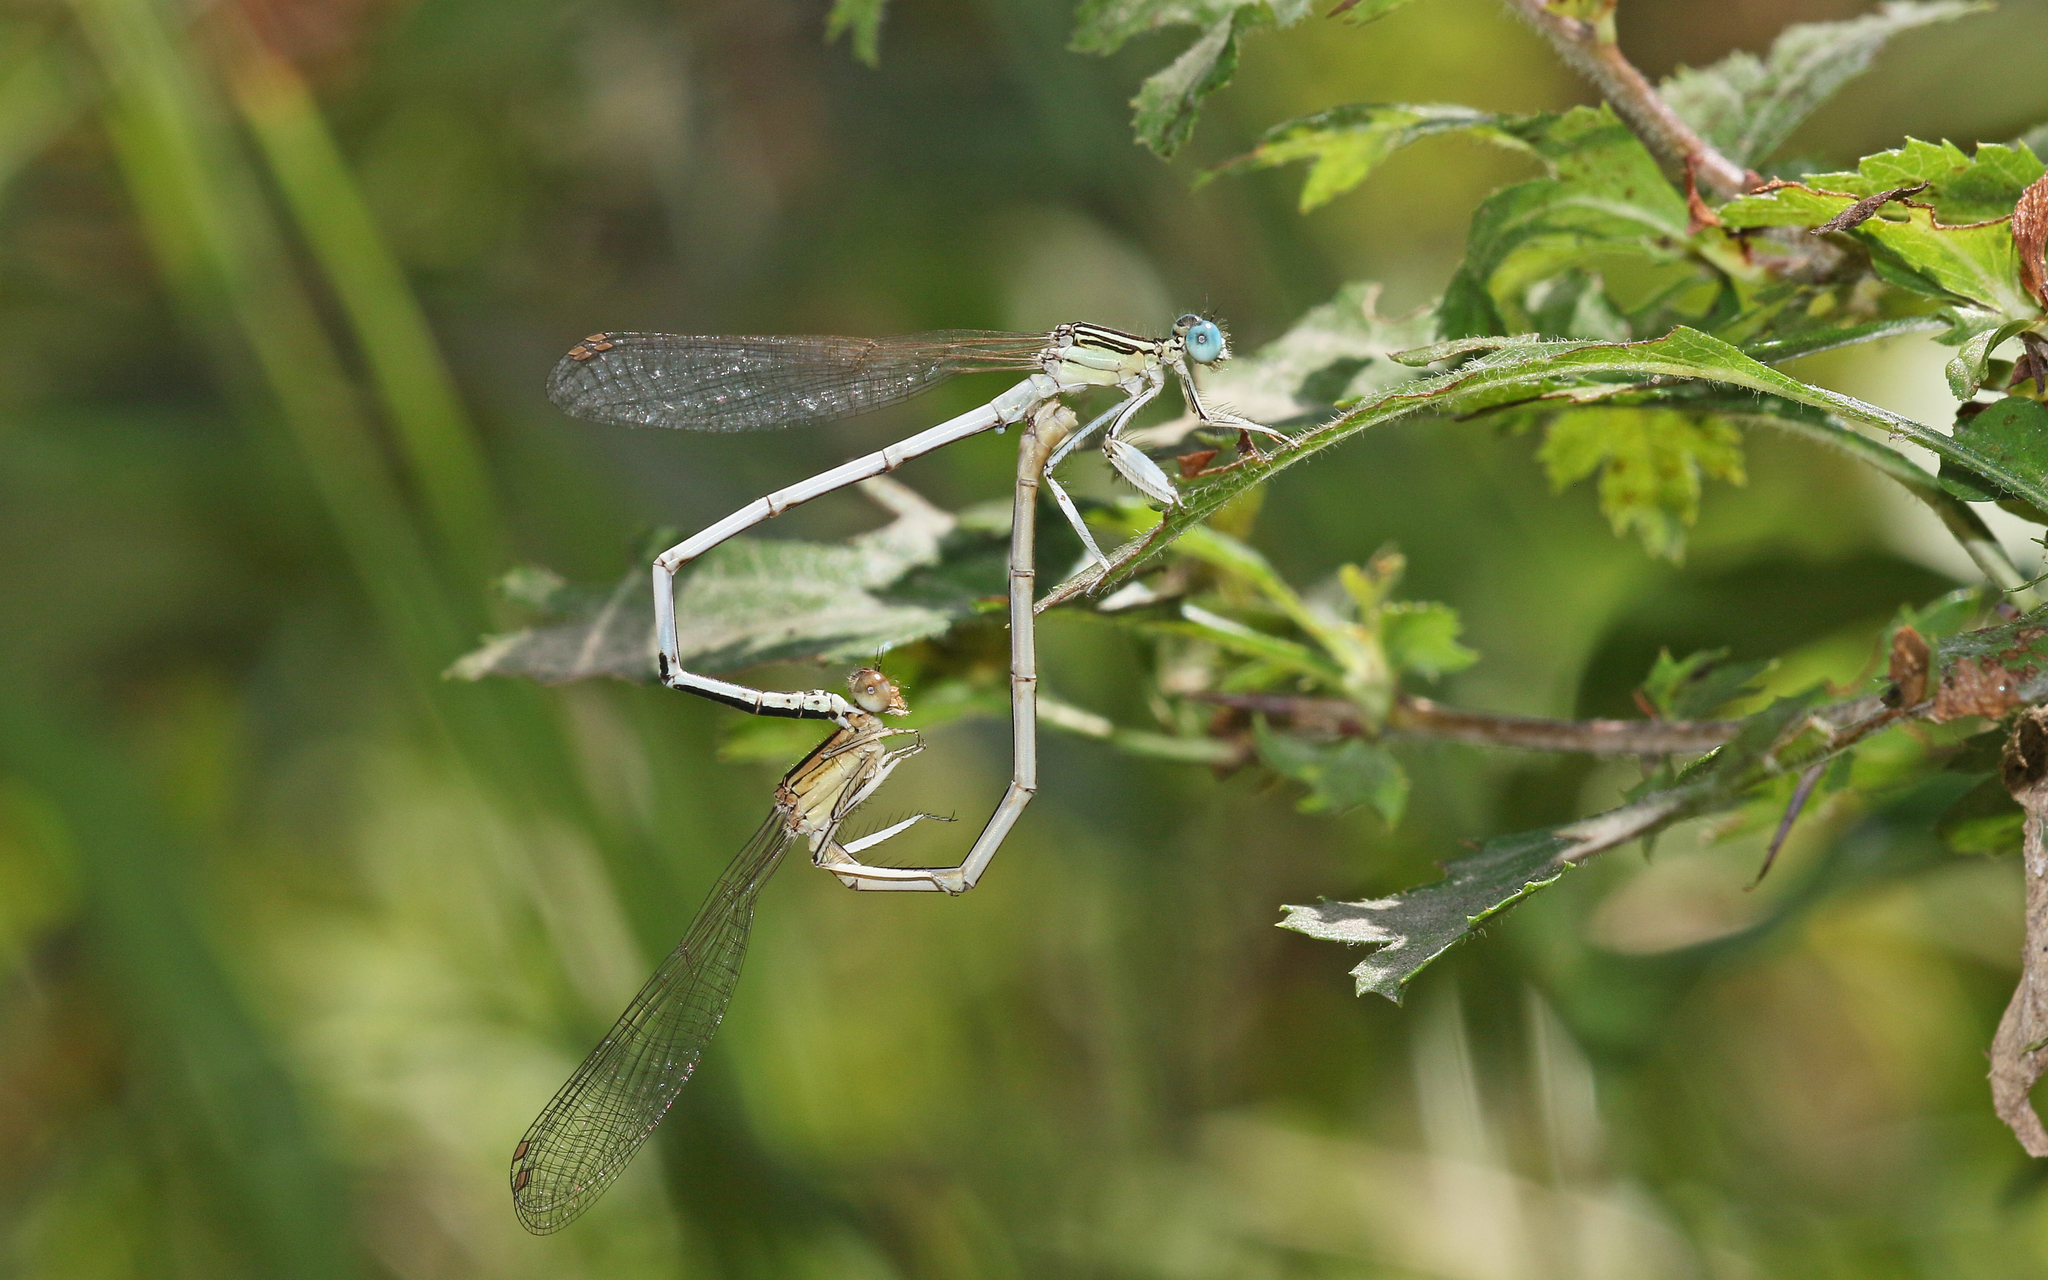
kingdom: Animalia
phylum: Arthropoda
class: Insecta
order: Odonata
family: Platycnemididae
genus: Platycnemis
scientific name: Platycnemis latipes
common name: White featherleg
